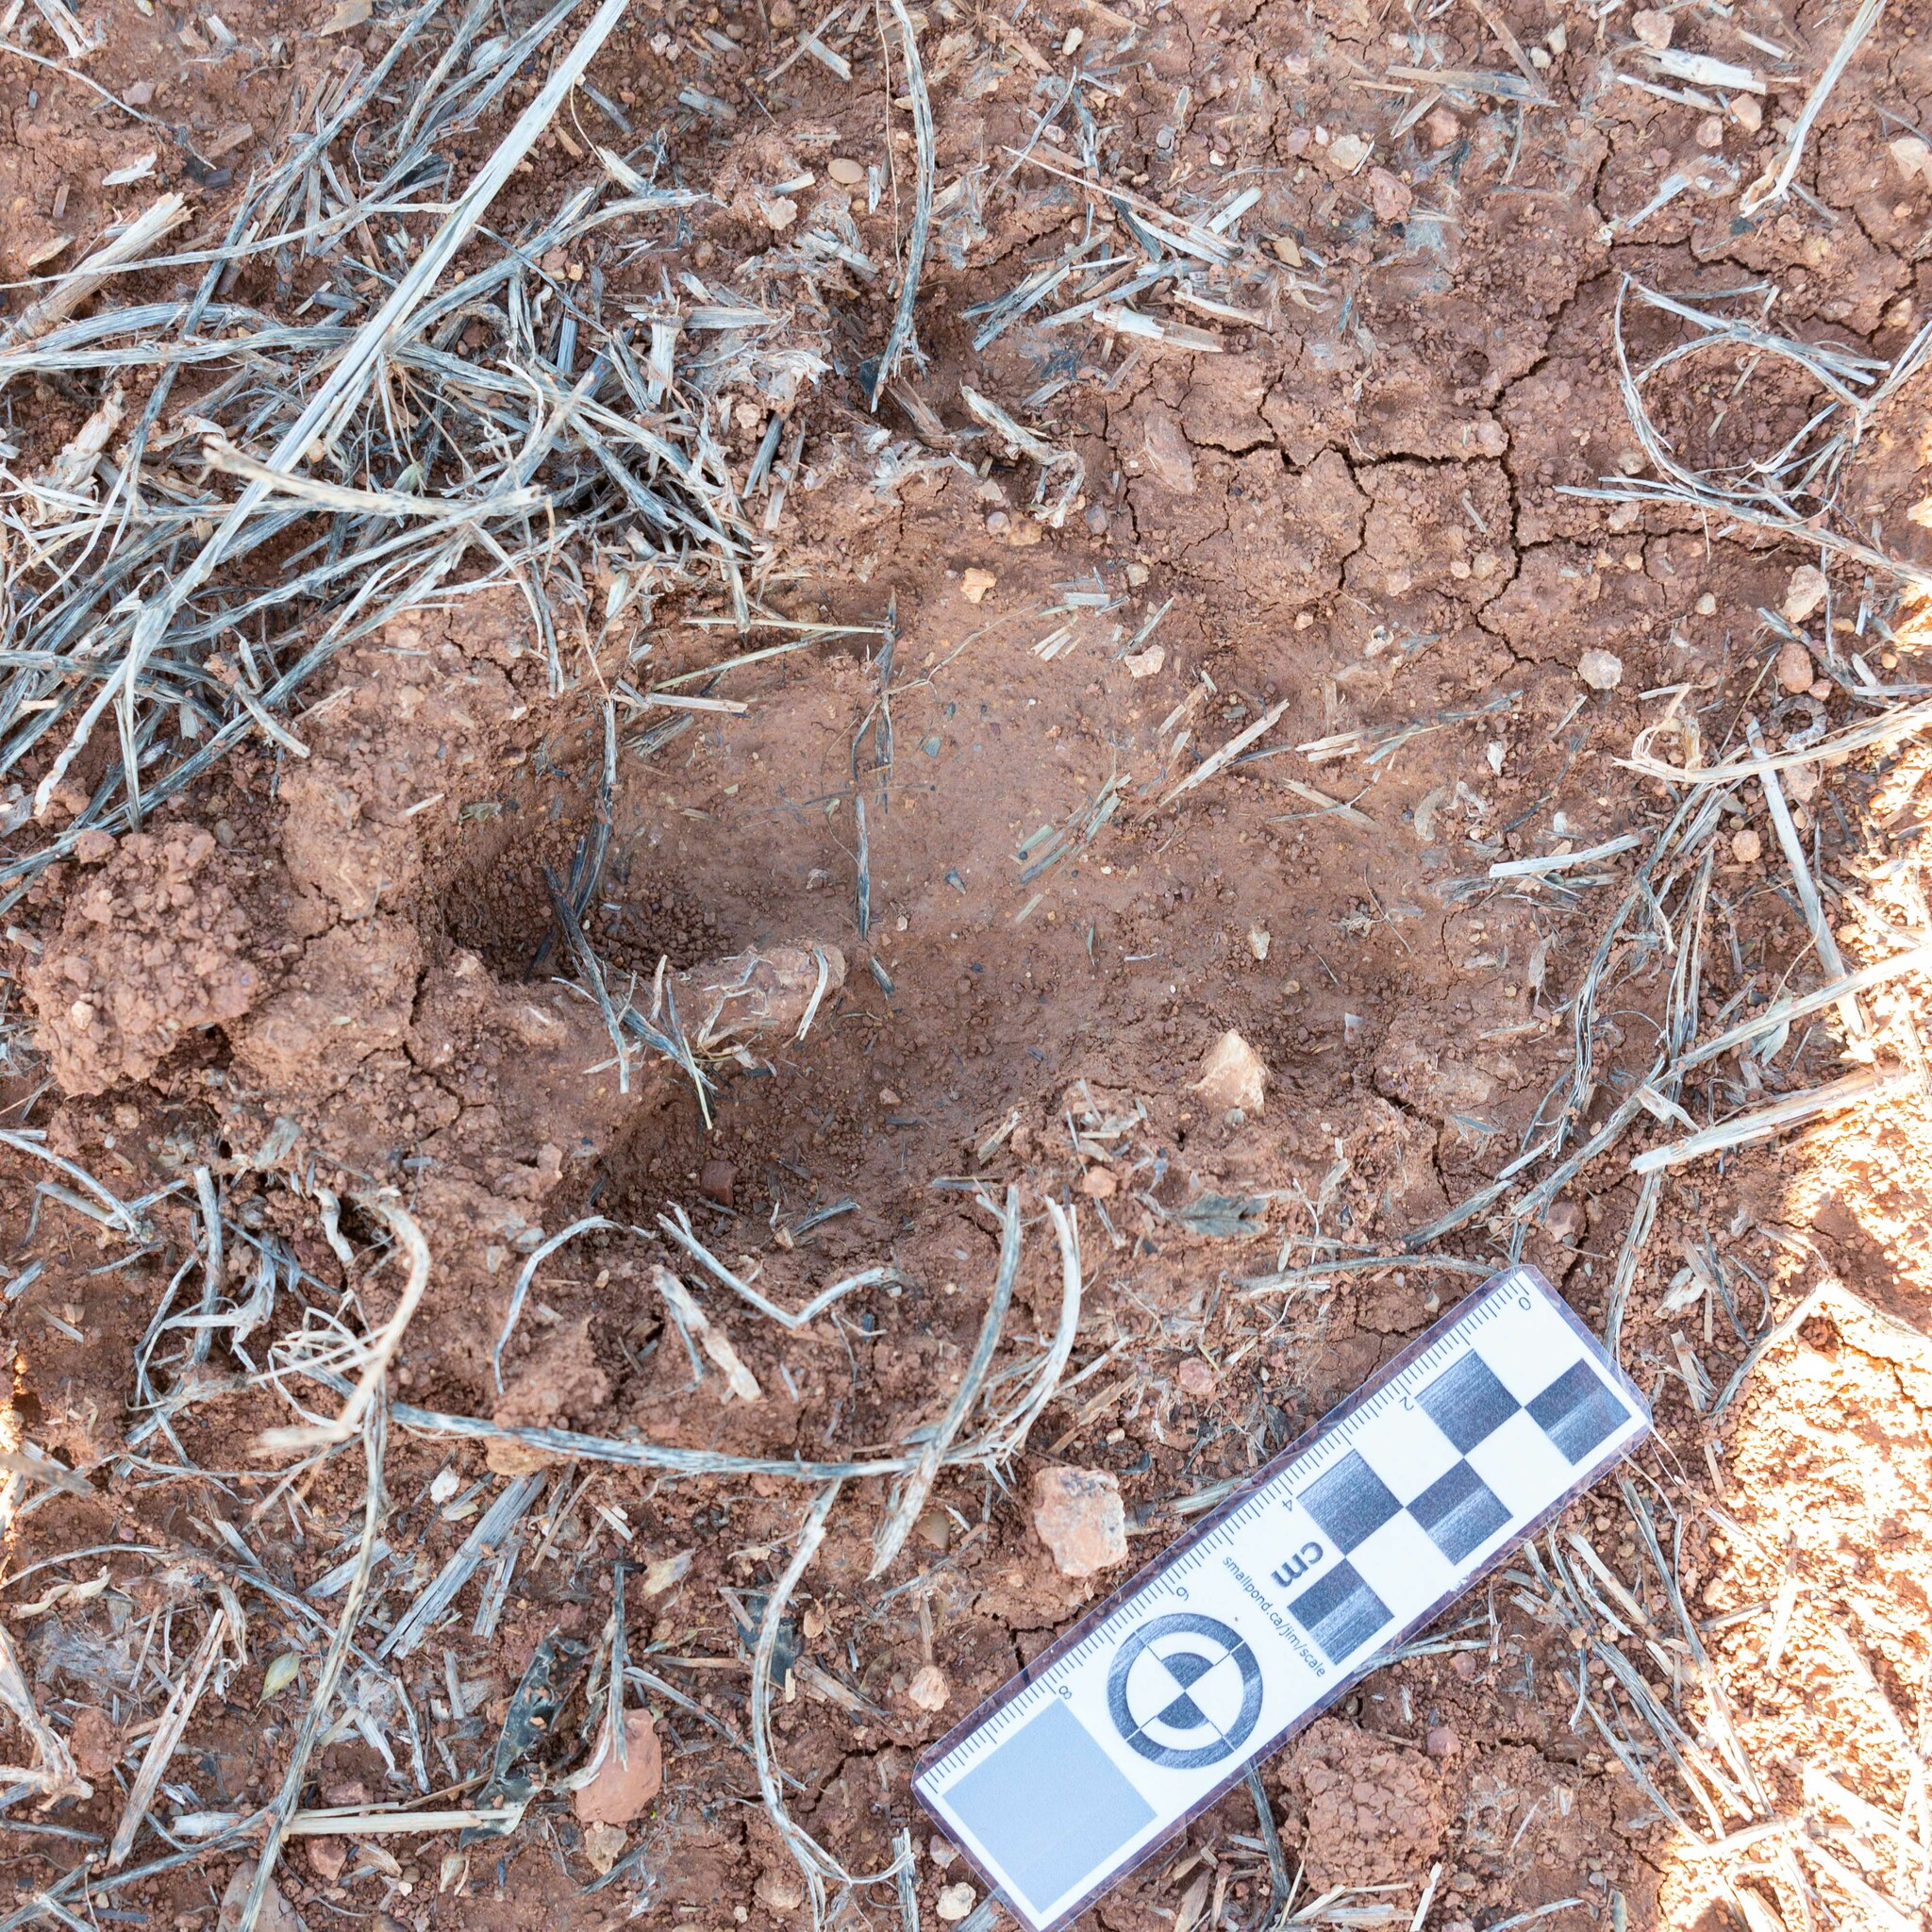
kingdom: Animalia
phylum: Chordata
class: Mammalia
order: Artiodactyla
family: Suidae
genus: Sus
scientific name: Sus scrofa
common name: Wild boar
